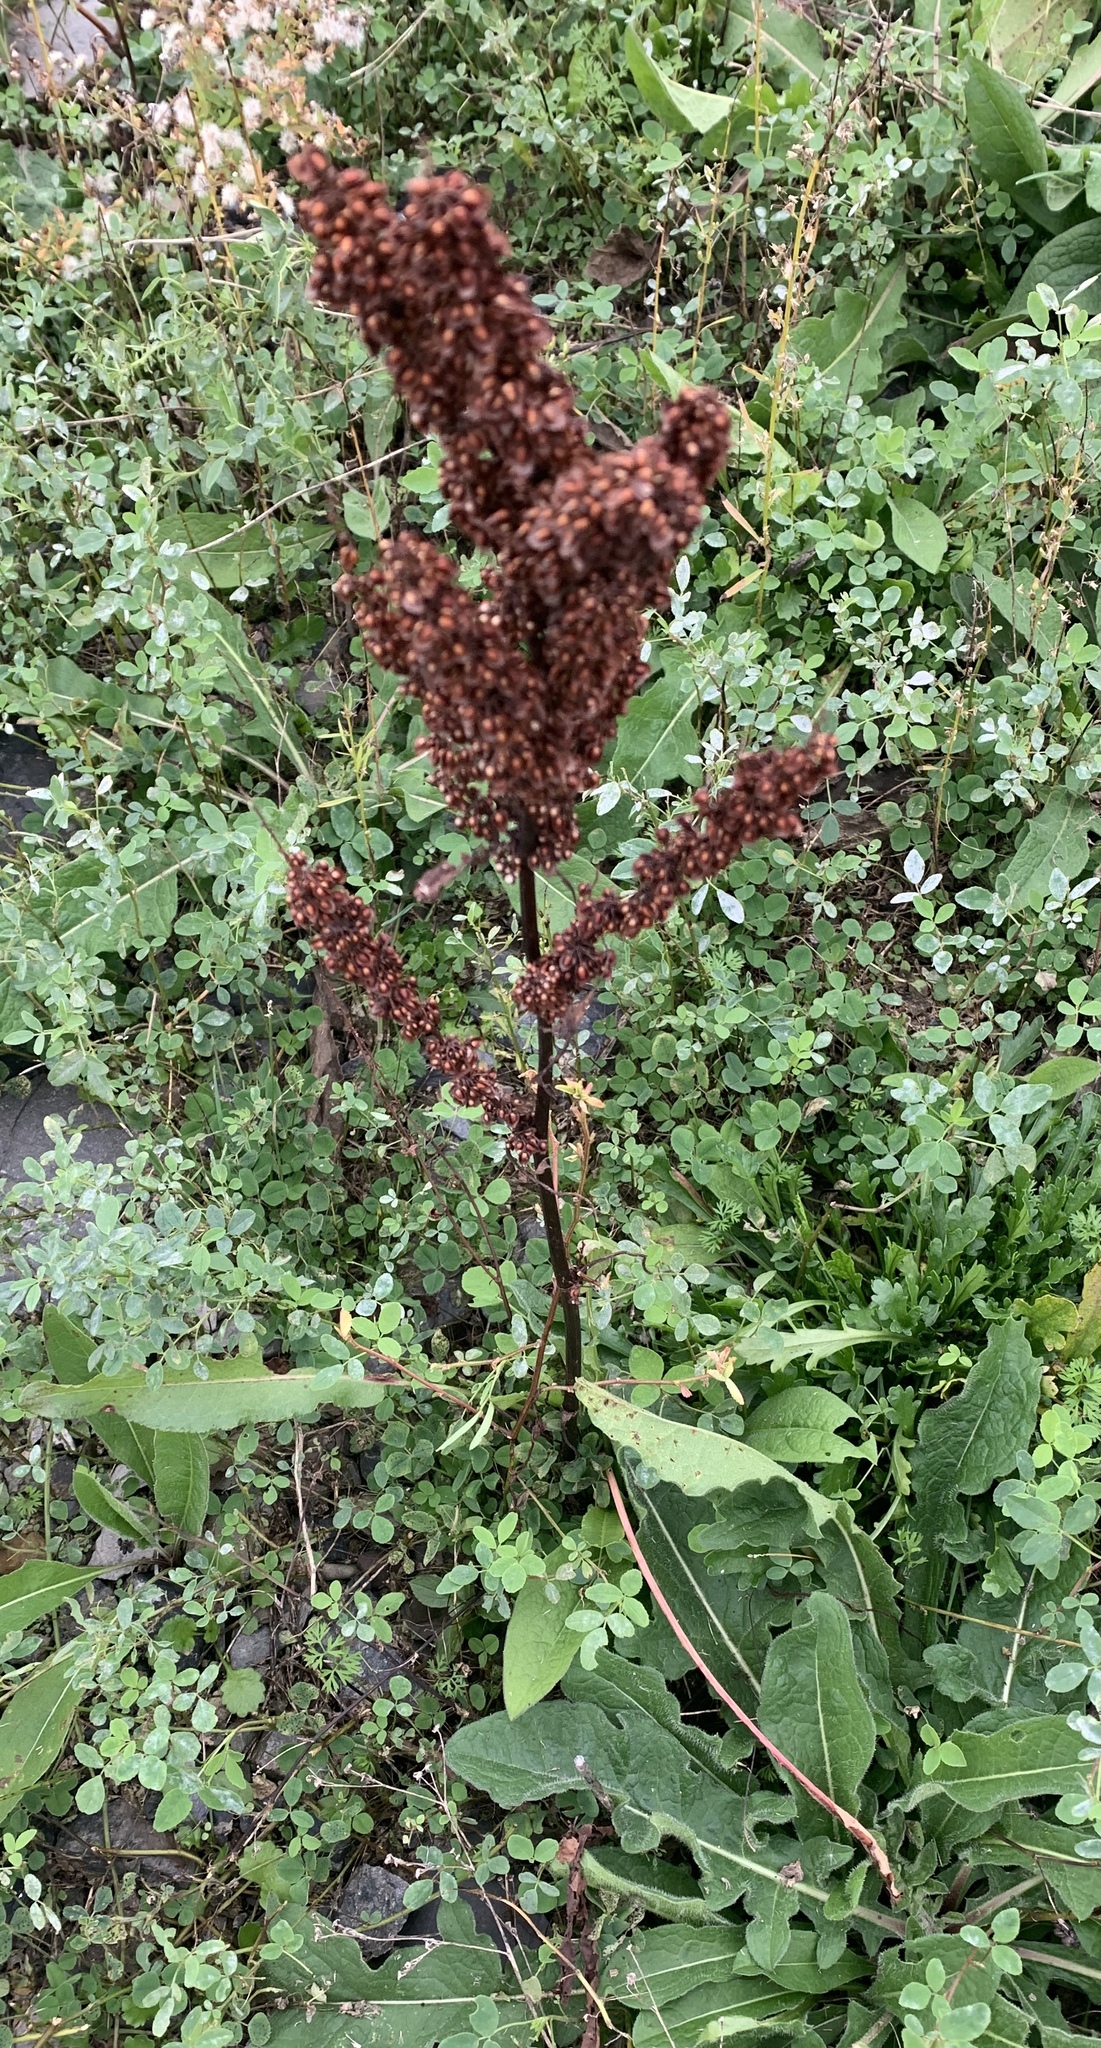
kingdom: Plantae
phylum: Tracheophyta
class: Magnoliopsida
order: Caryophyllales
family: Polygonaceae
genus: Rumex
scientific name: Rumex crispus
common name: Curled dock
